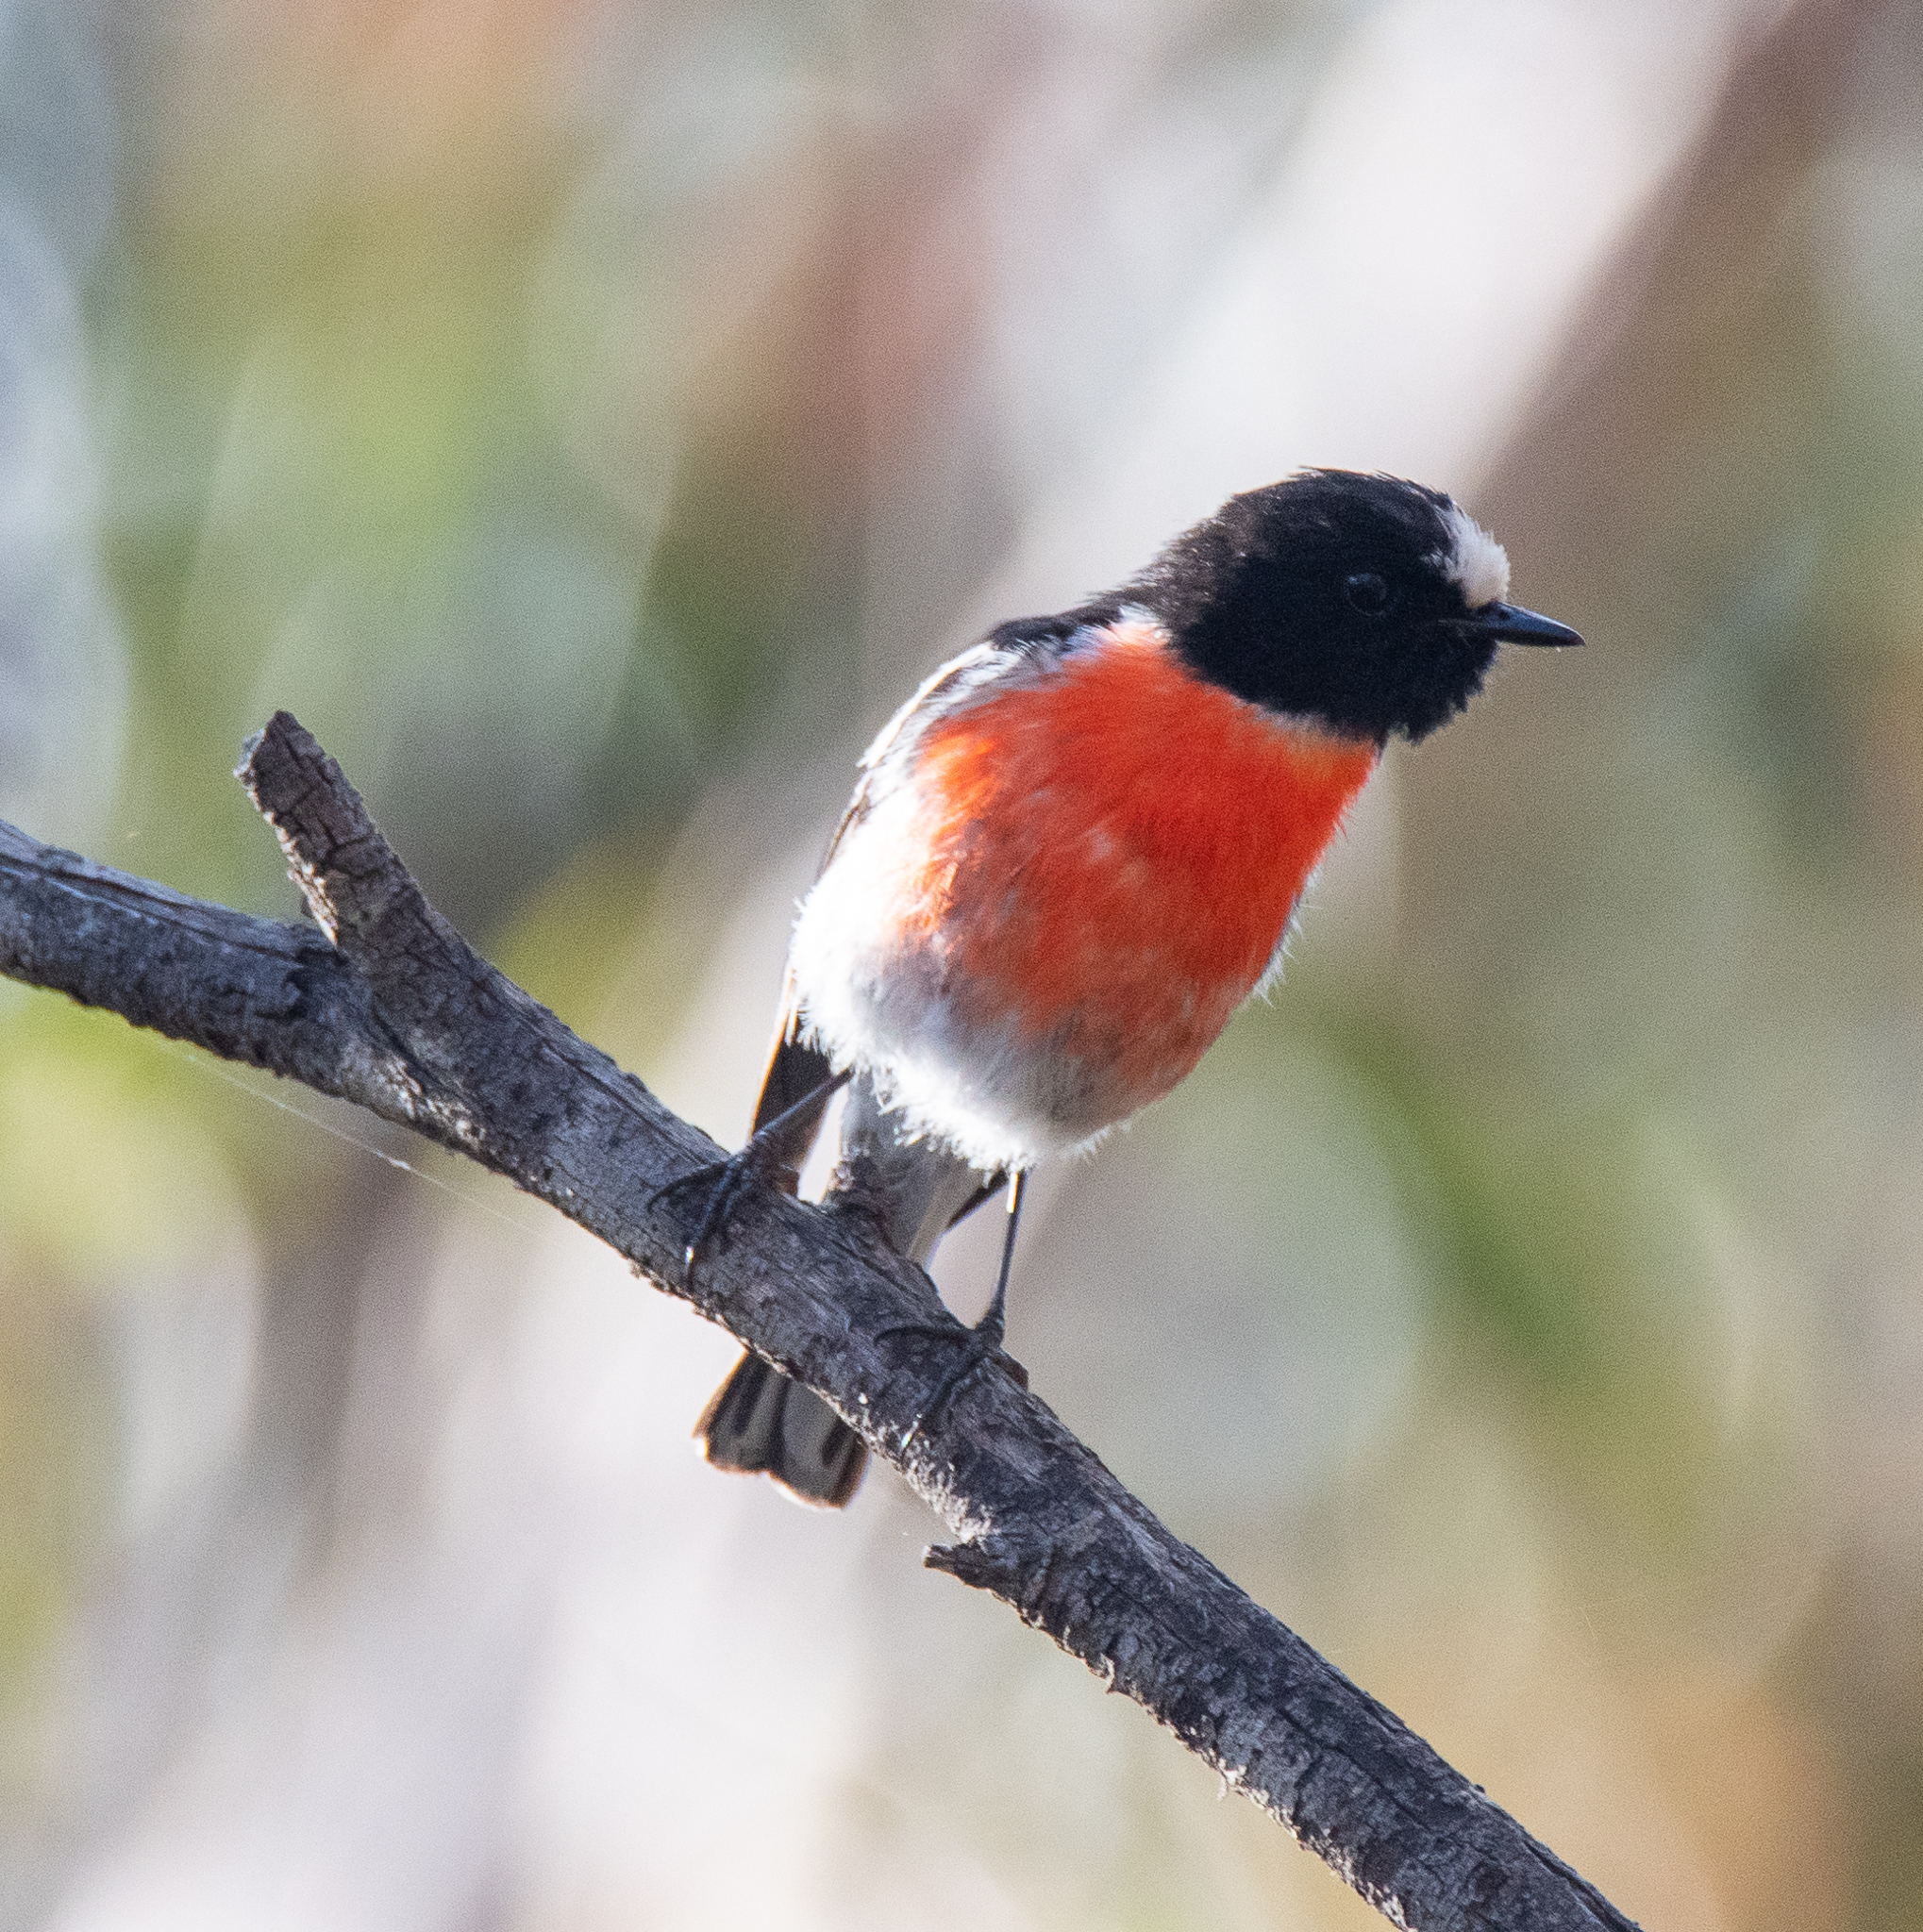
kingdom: Animalia
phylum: Chordata
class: Aves
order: Passeriformes
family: Petroicidae
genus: Petroica
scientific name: Petroica boodang
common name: Scarlet robin
